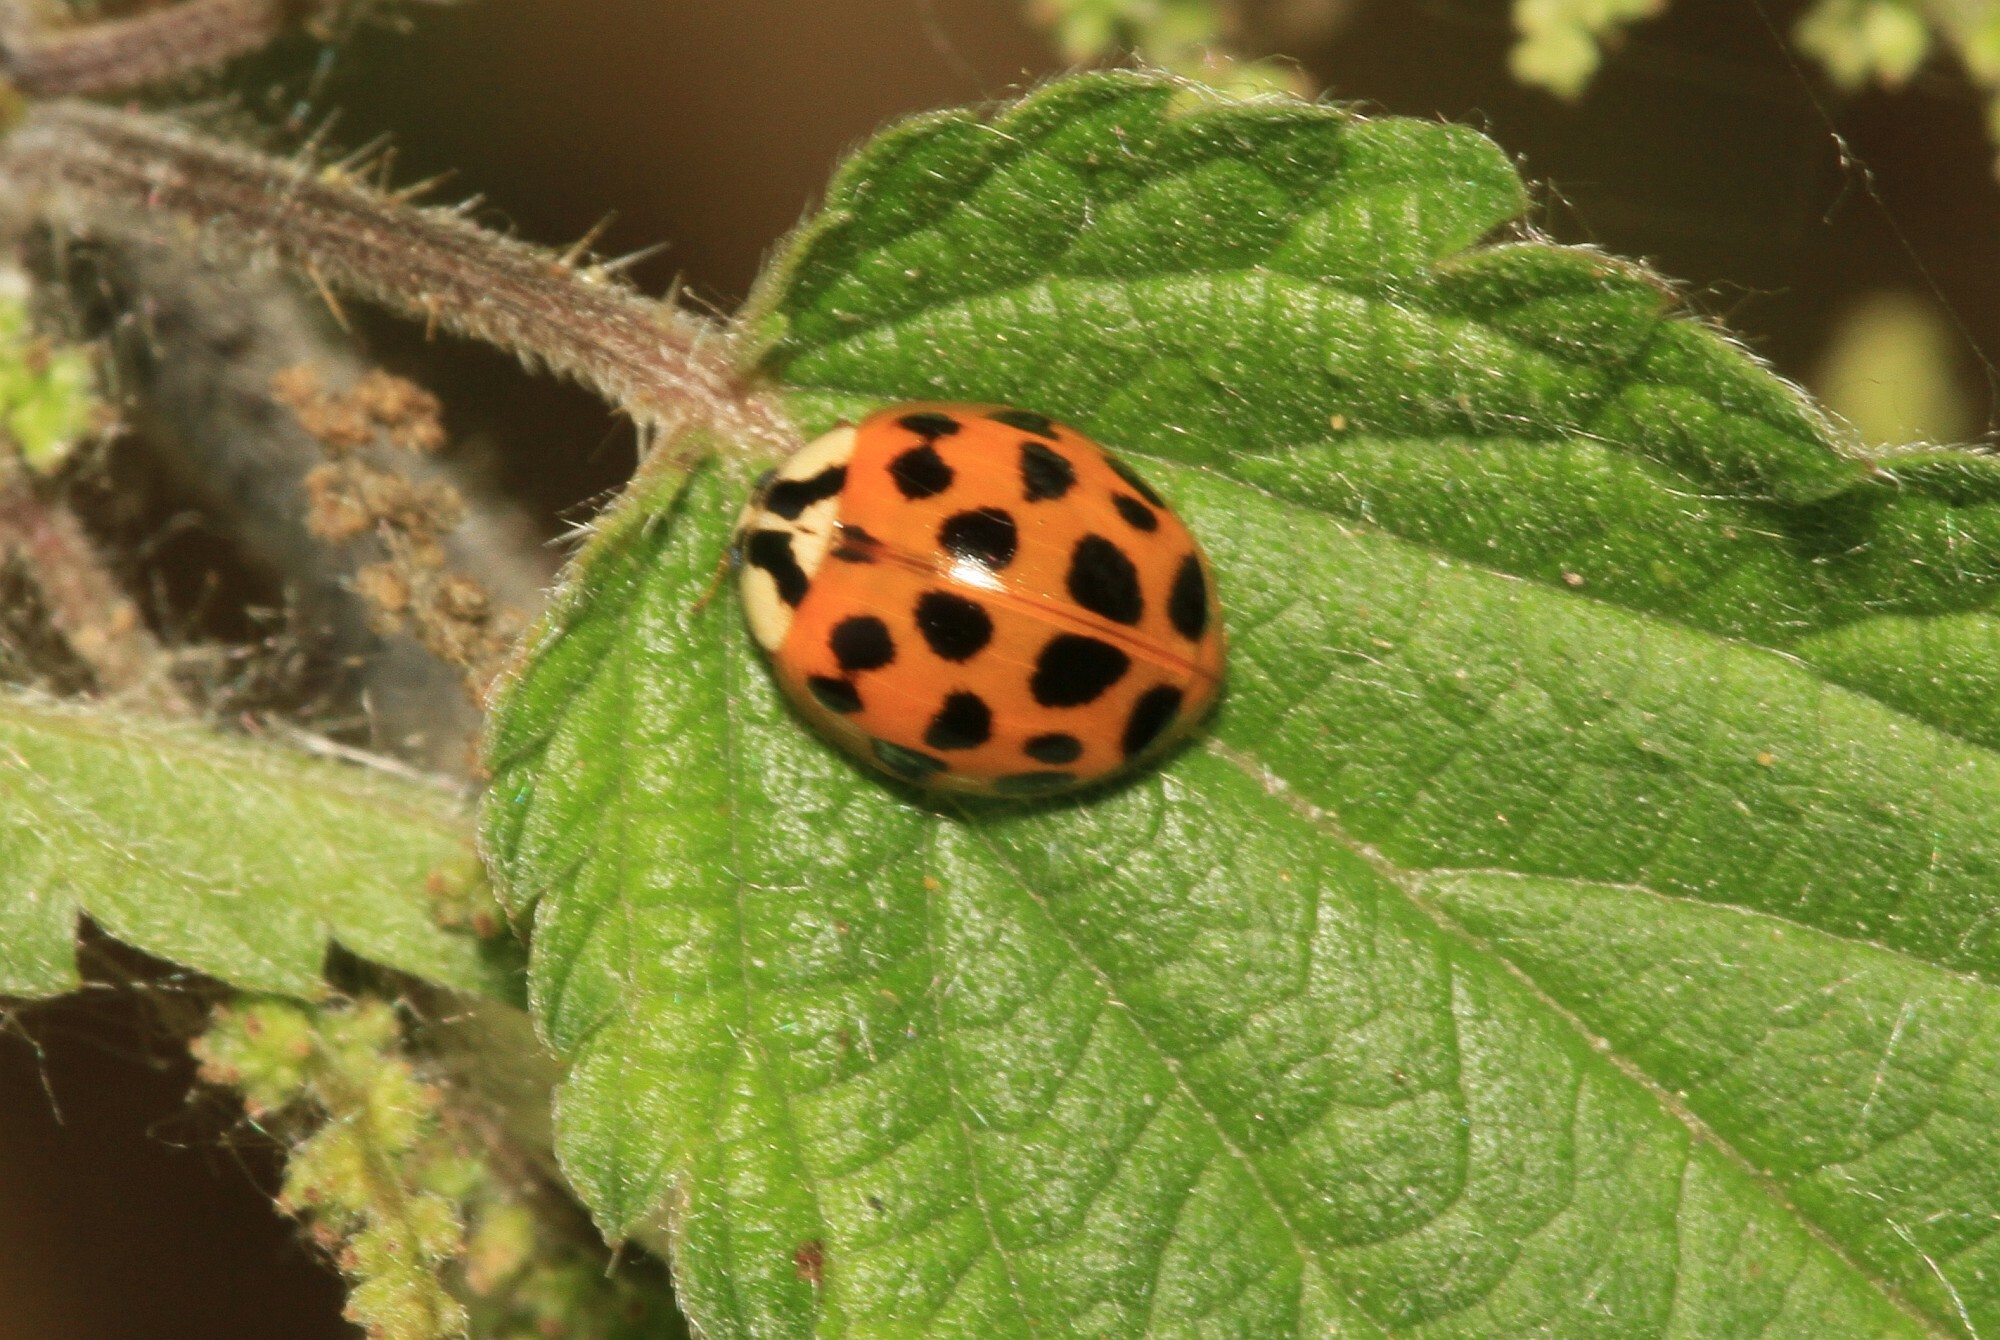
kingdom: Animalia
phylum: Arthropoda
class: Insecta
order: Coleoptera
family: Coccinellidae
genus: Harmonia
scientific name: Harmonia axyridis
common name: Harlequin ladybird
